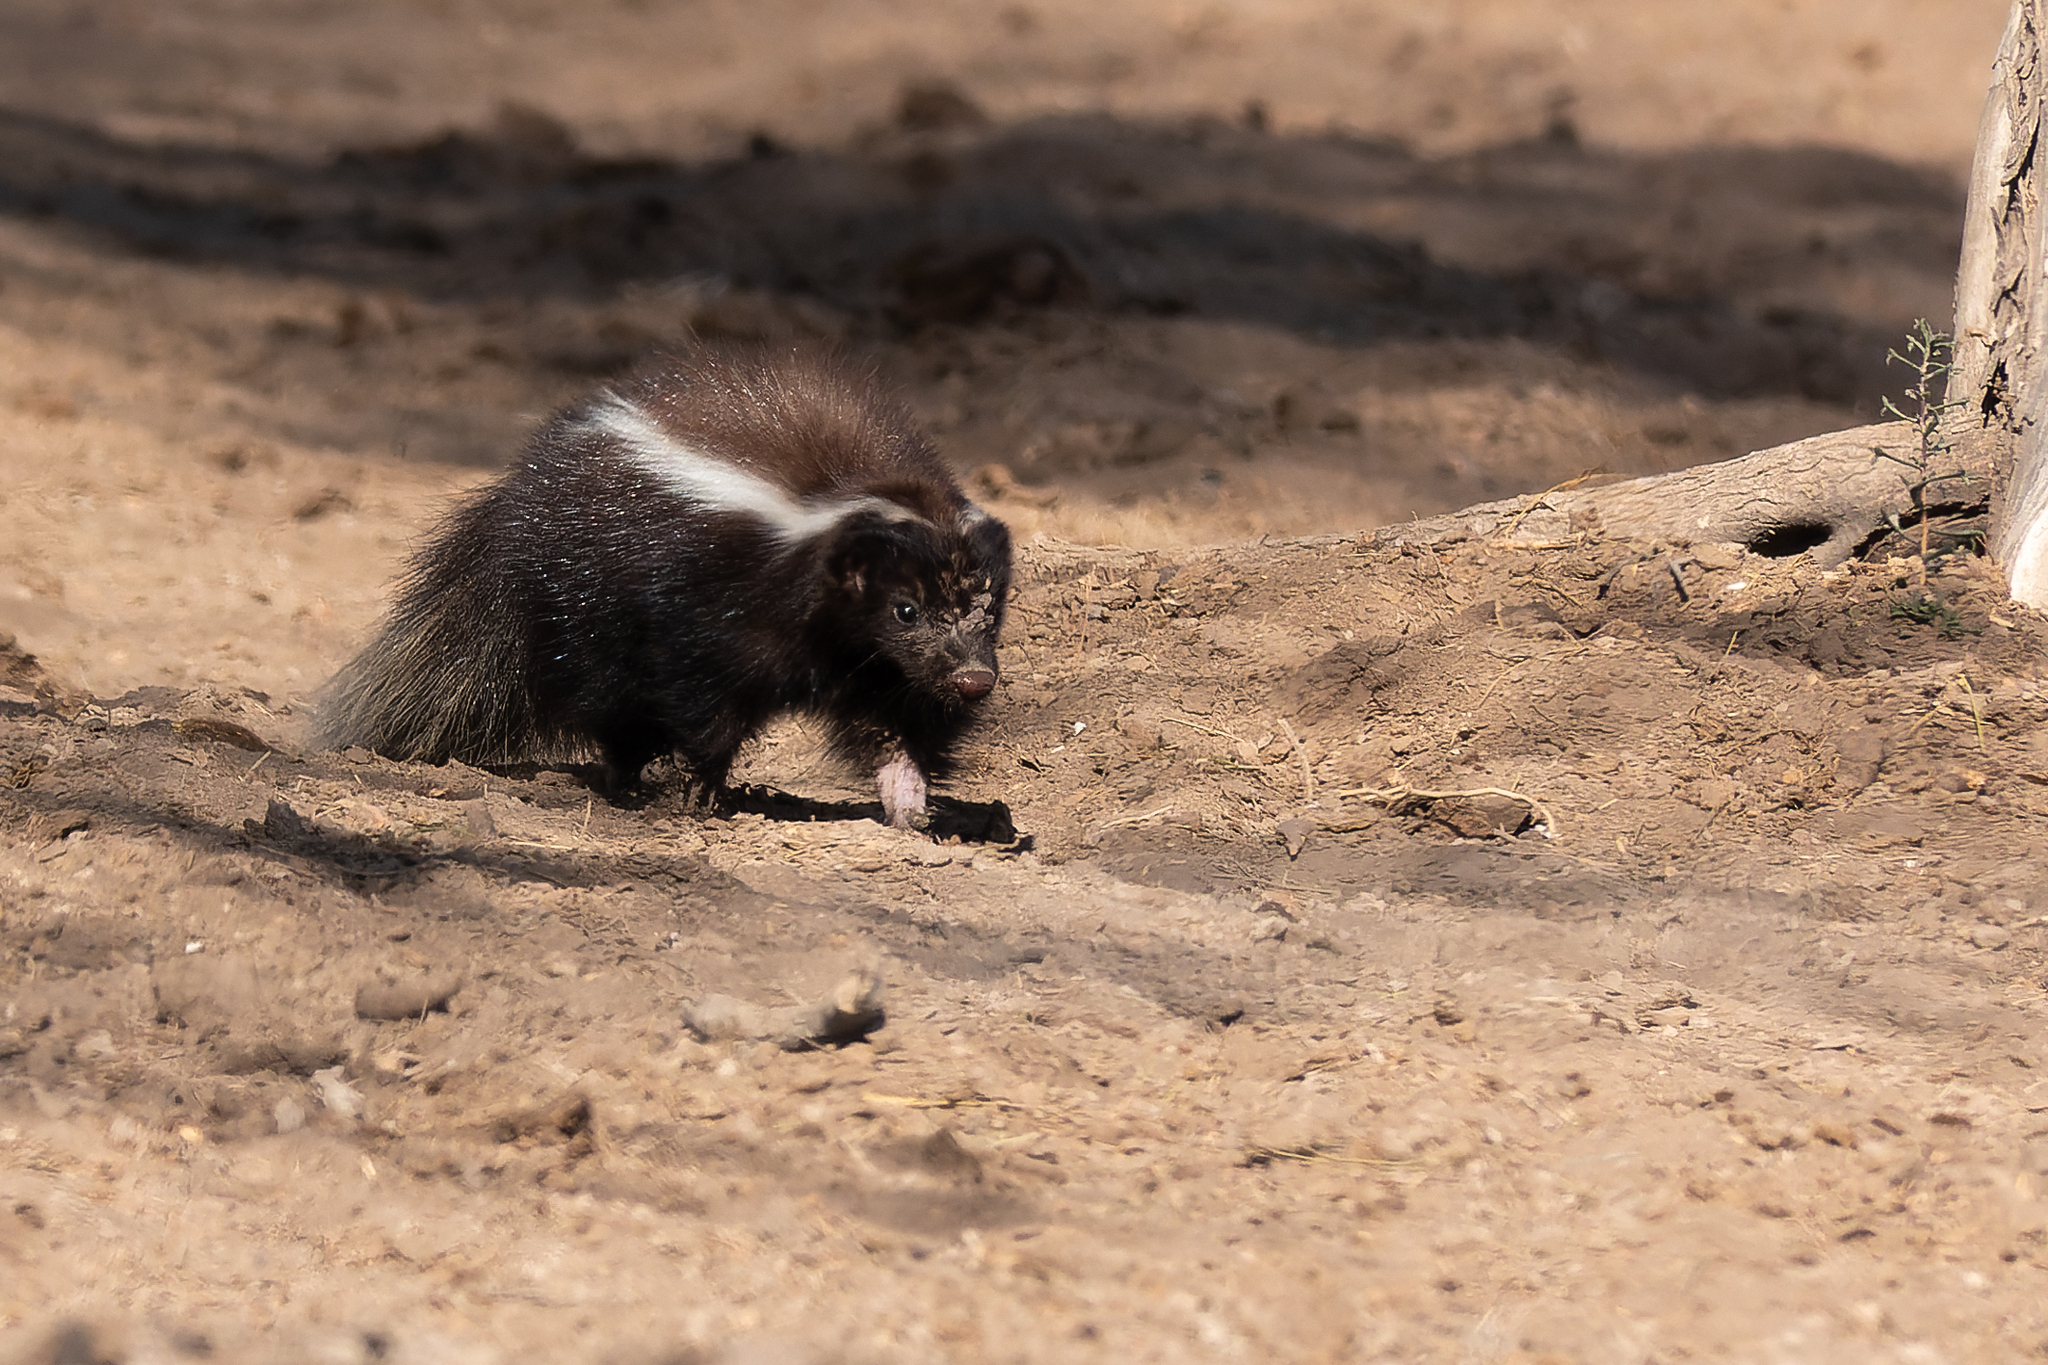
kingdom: Animalia
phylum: Chordata
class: Mammalia
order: Carnivora
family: Mephitidae
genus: Conepatus
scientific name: Conepatus chinga
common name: Molina's hog-nosed skunk
